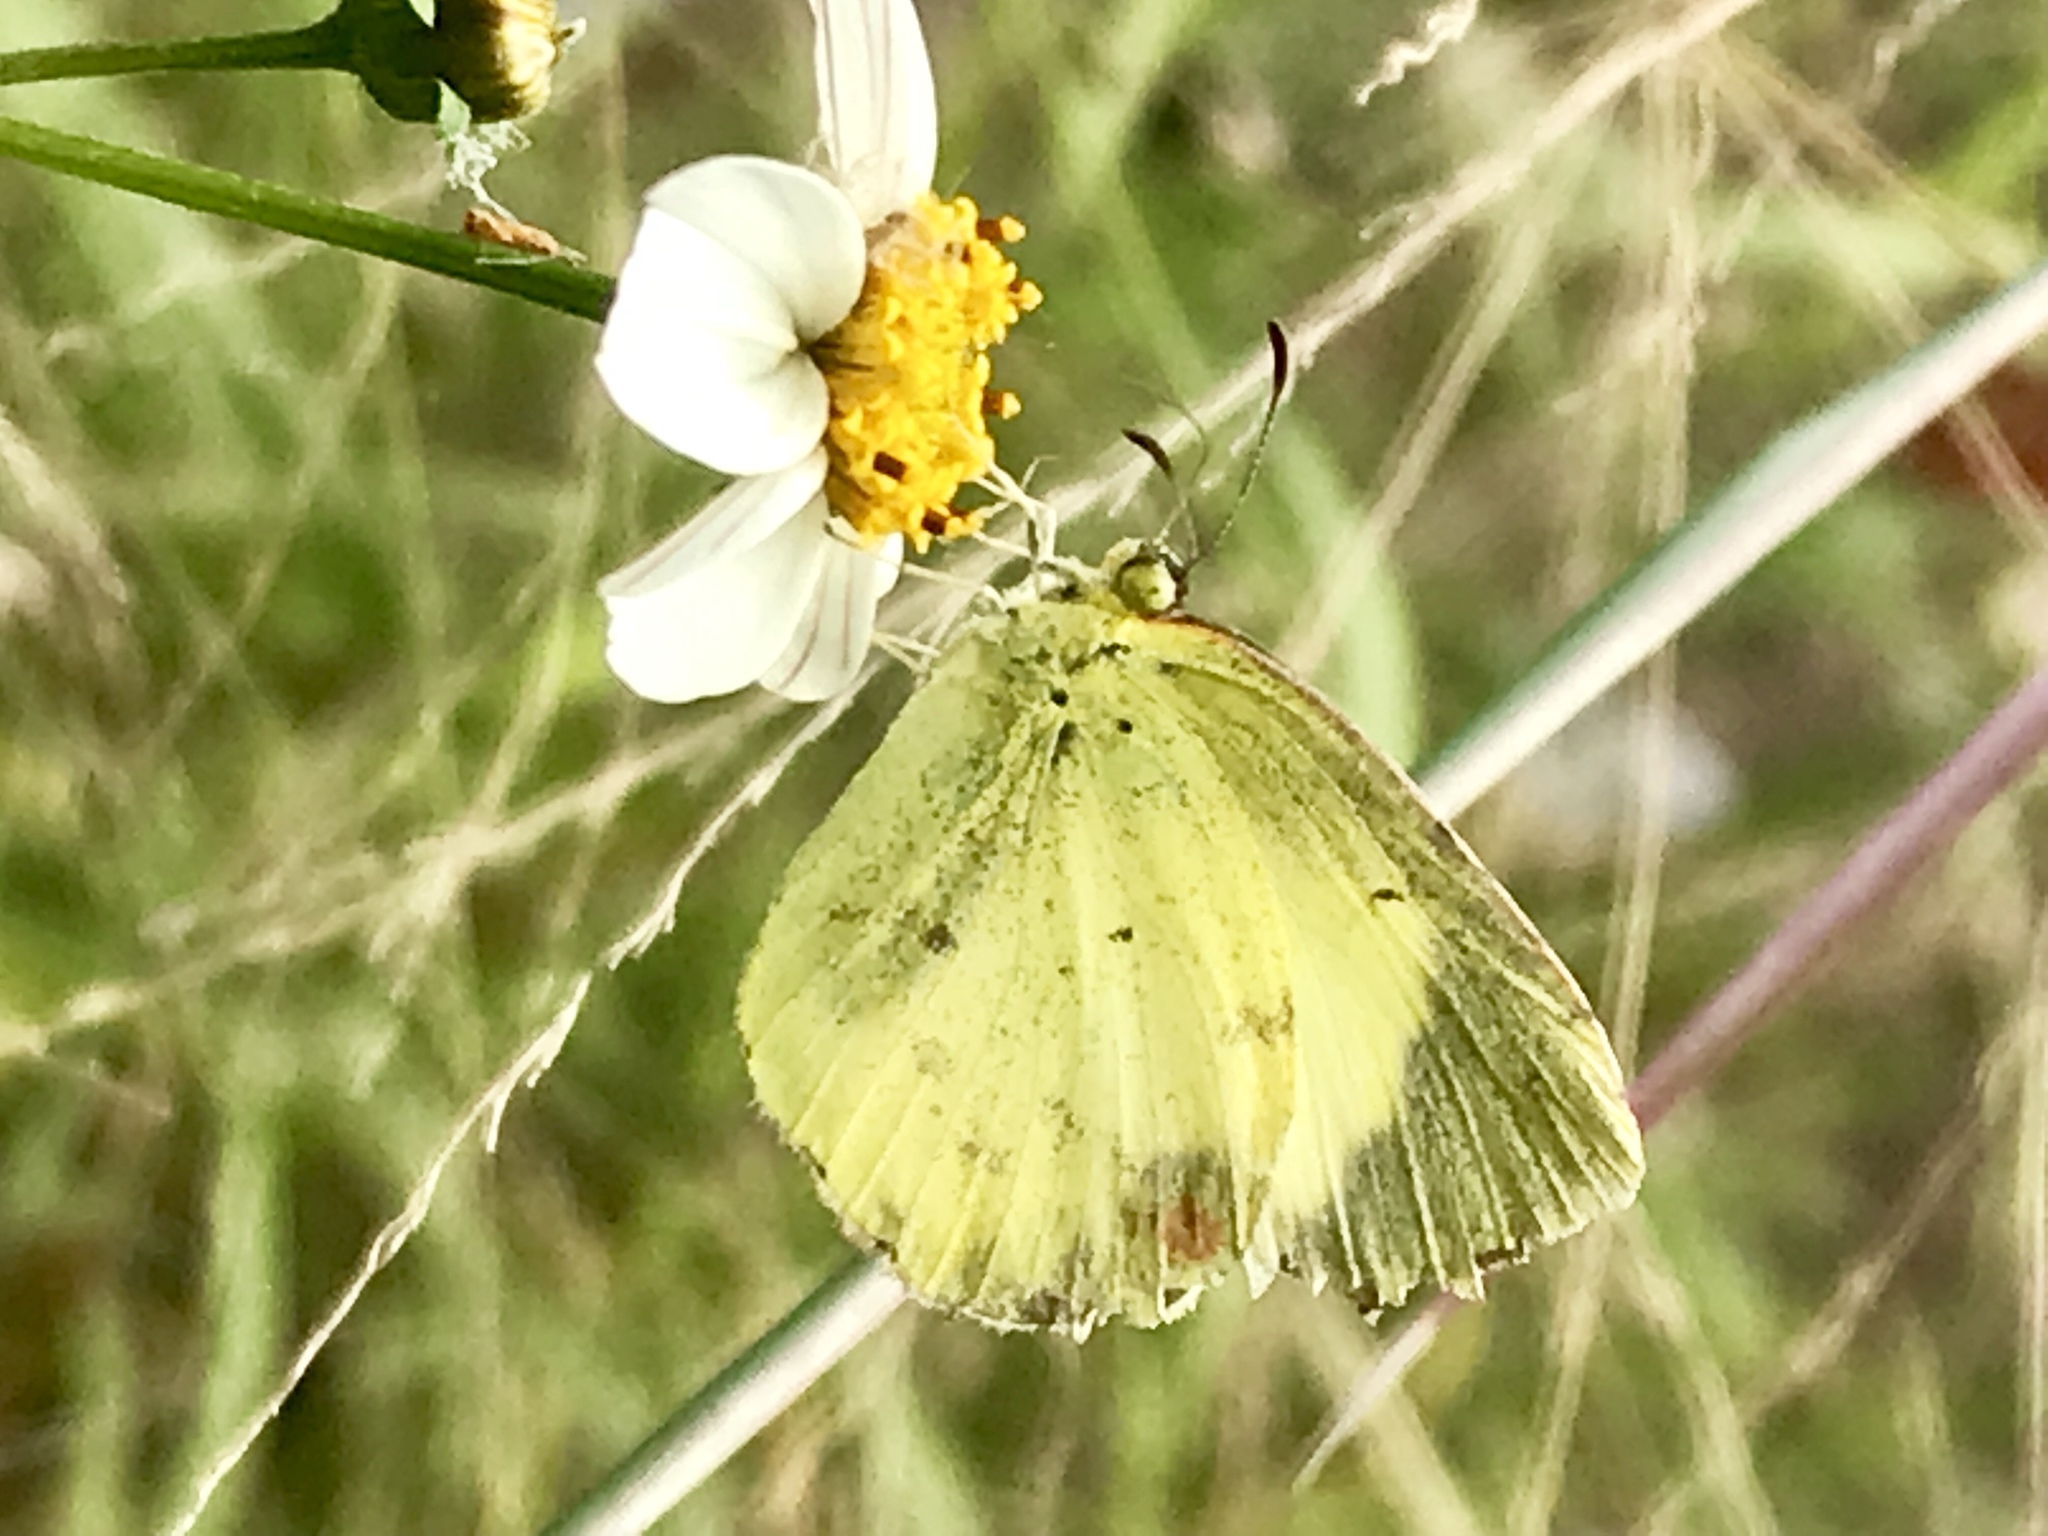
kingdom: Animalia
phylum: Arthropoda
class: Insecta
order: Lepidoptera
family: Pieridae
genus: Pyrisitia
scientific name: Pyrisitia lisa
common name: Little yellow
